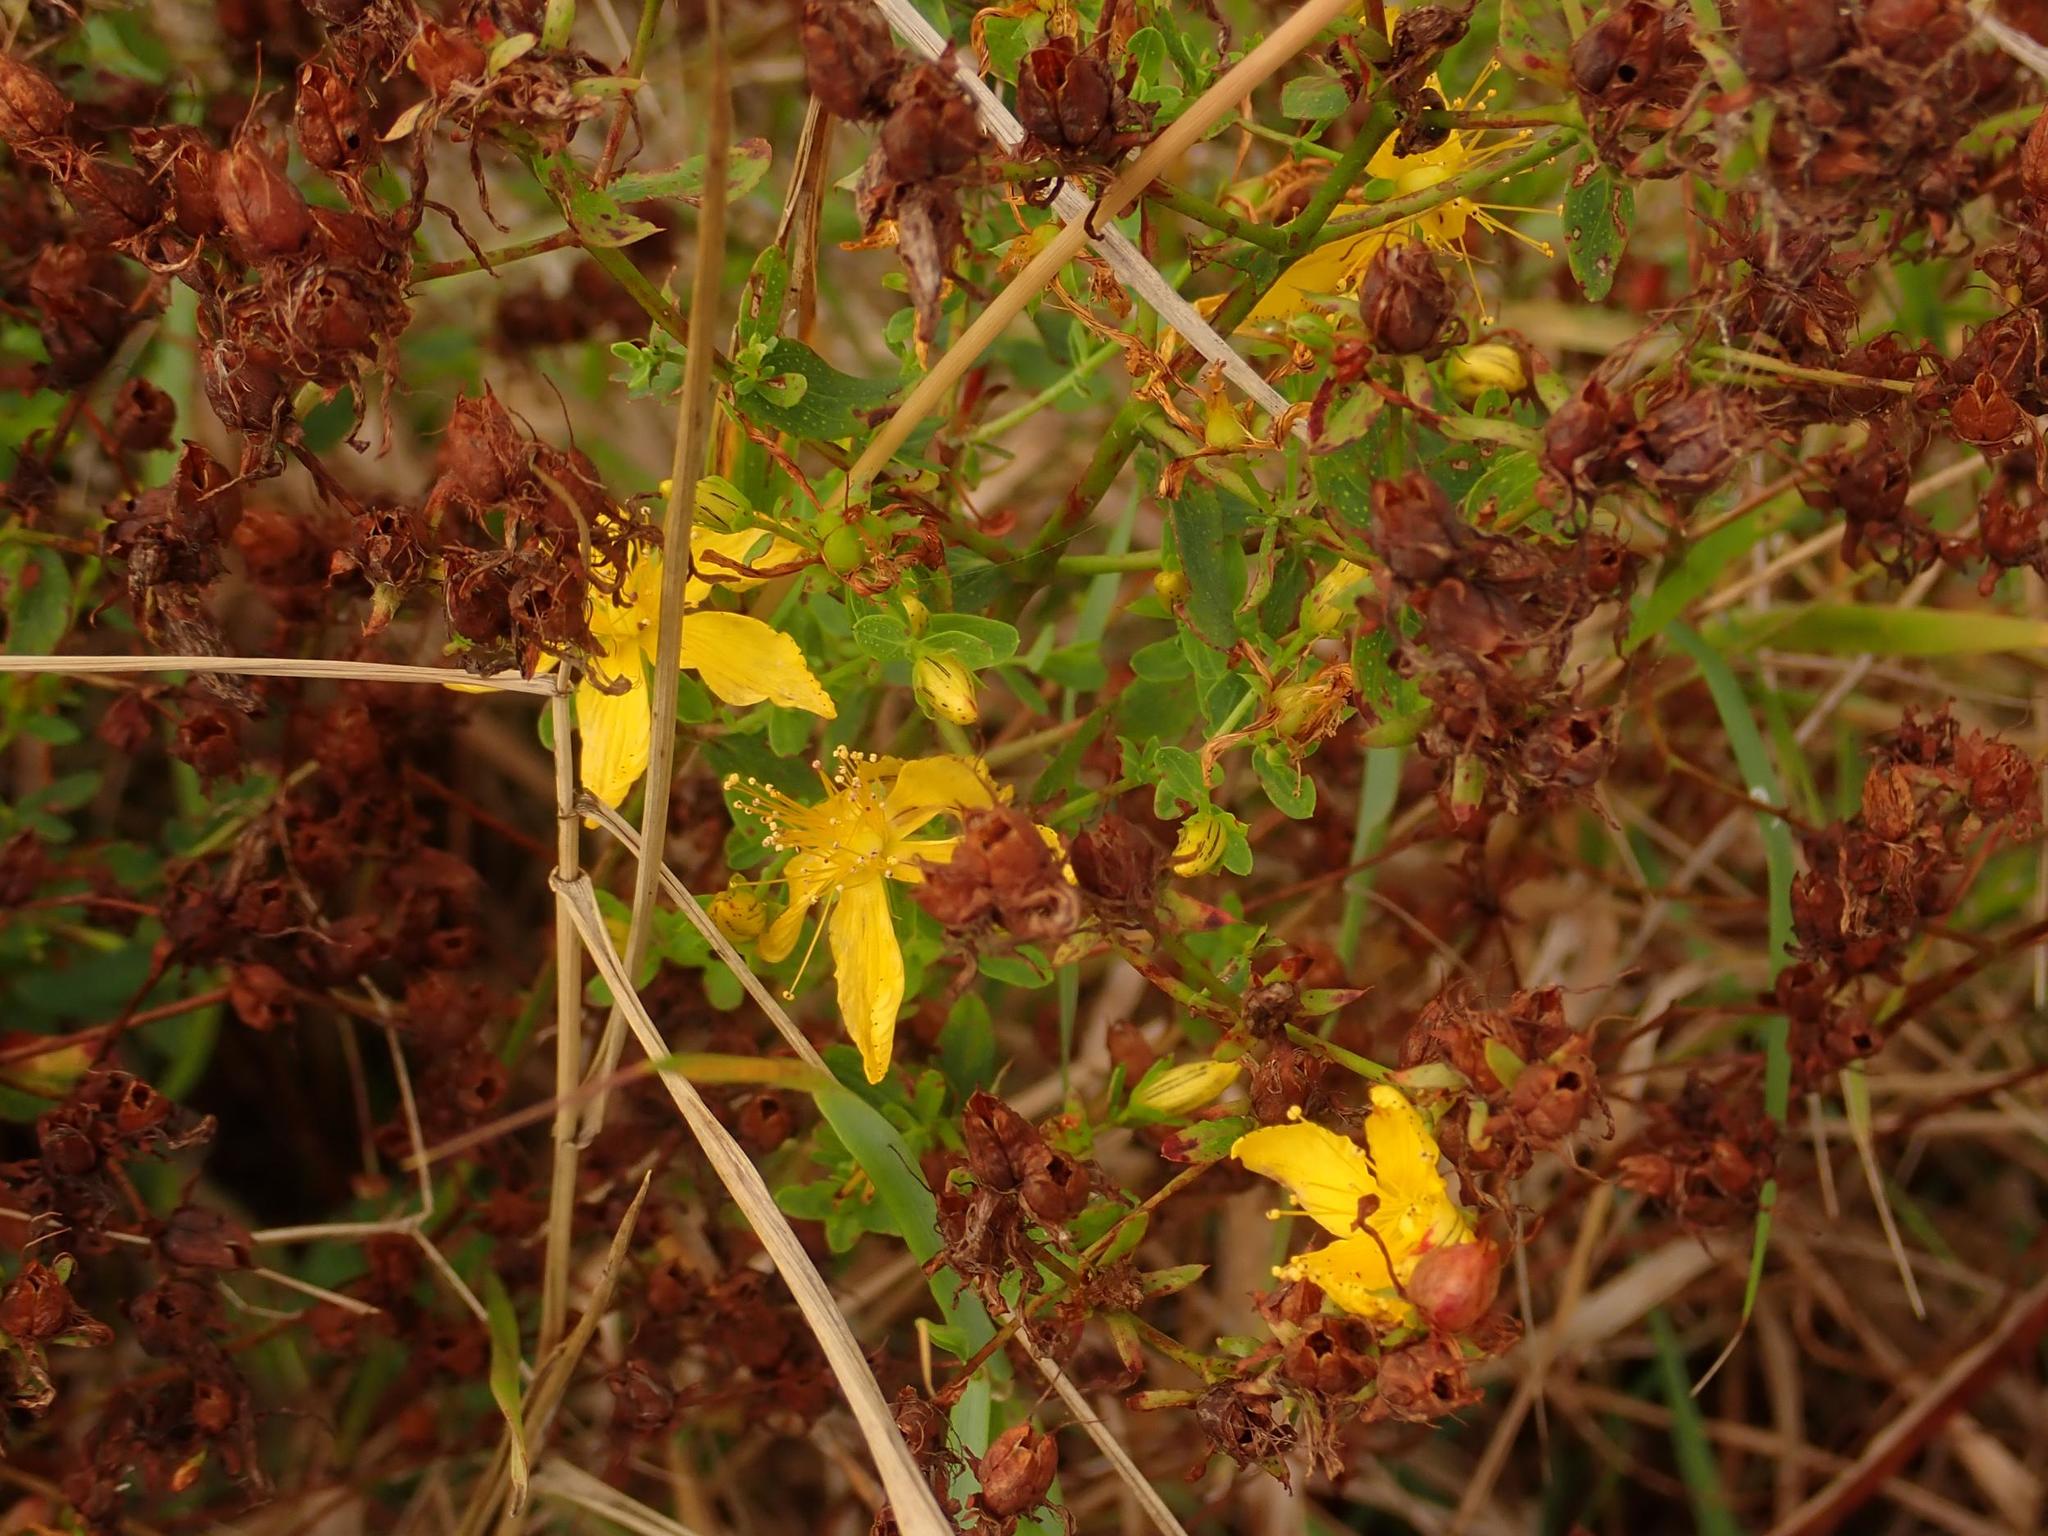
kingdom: Plantae
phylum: Tracheophyta
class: Magnoliopsida
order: Malpighiales
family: Hypericaceae
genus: Hypericum
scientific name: Hypericum perforatum
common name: Common st. johnswort
